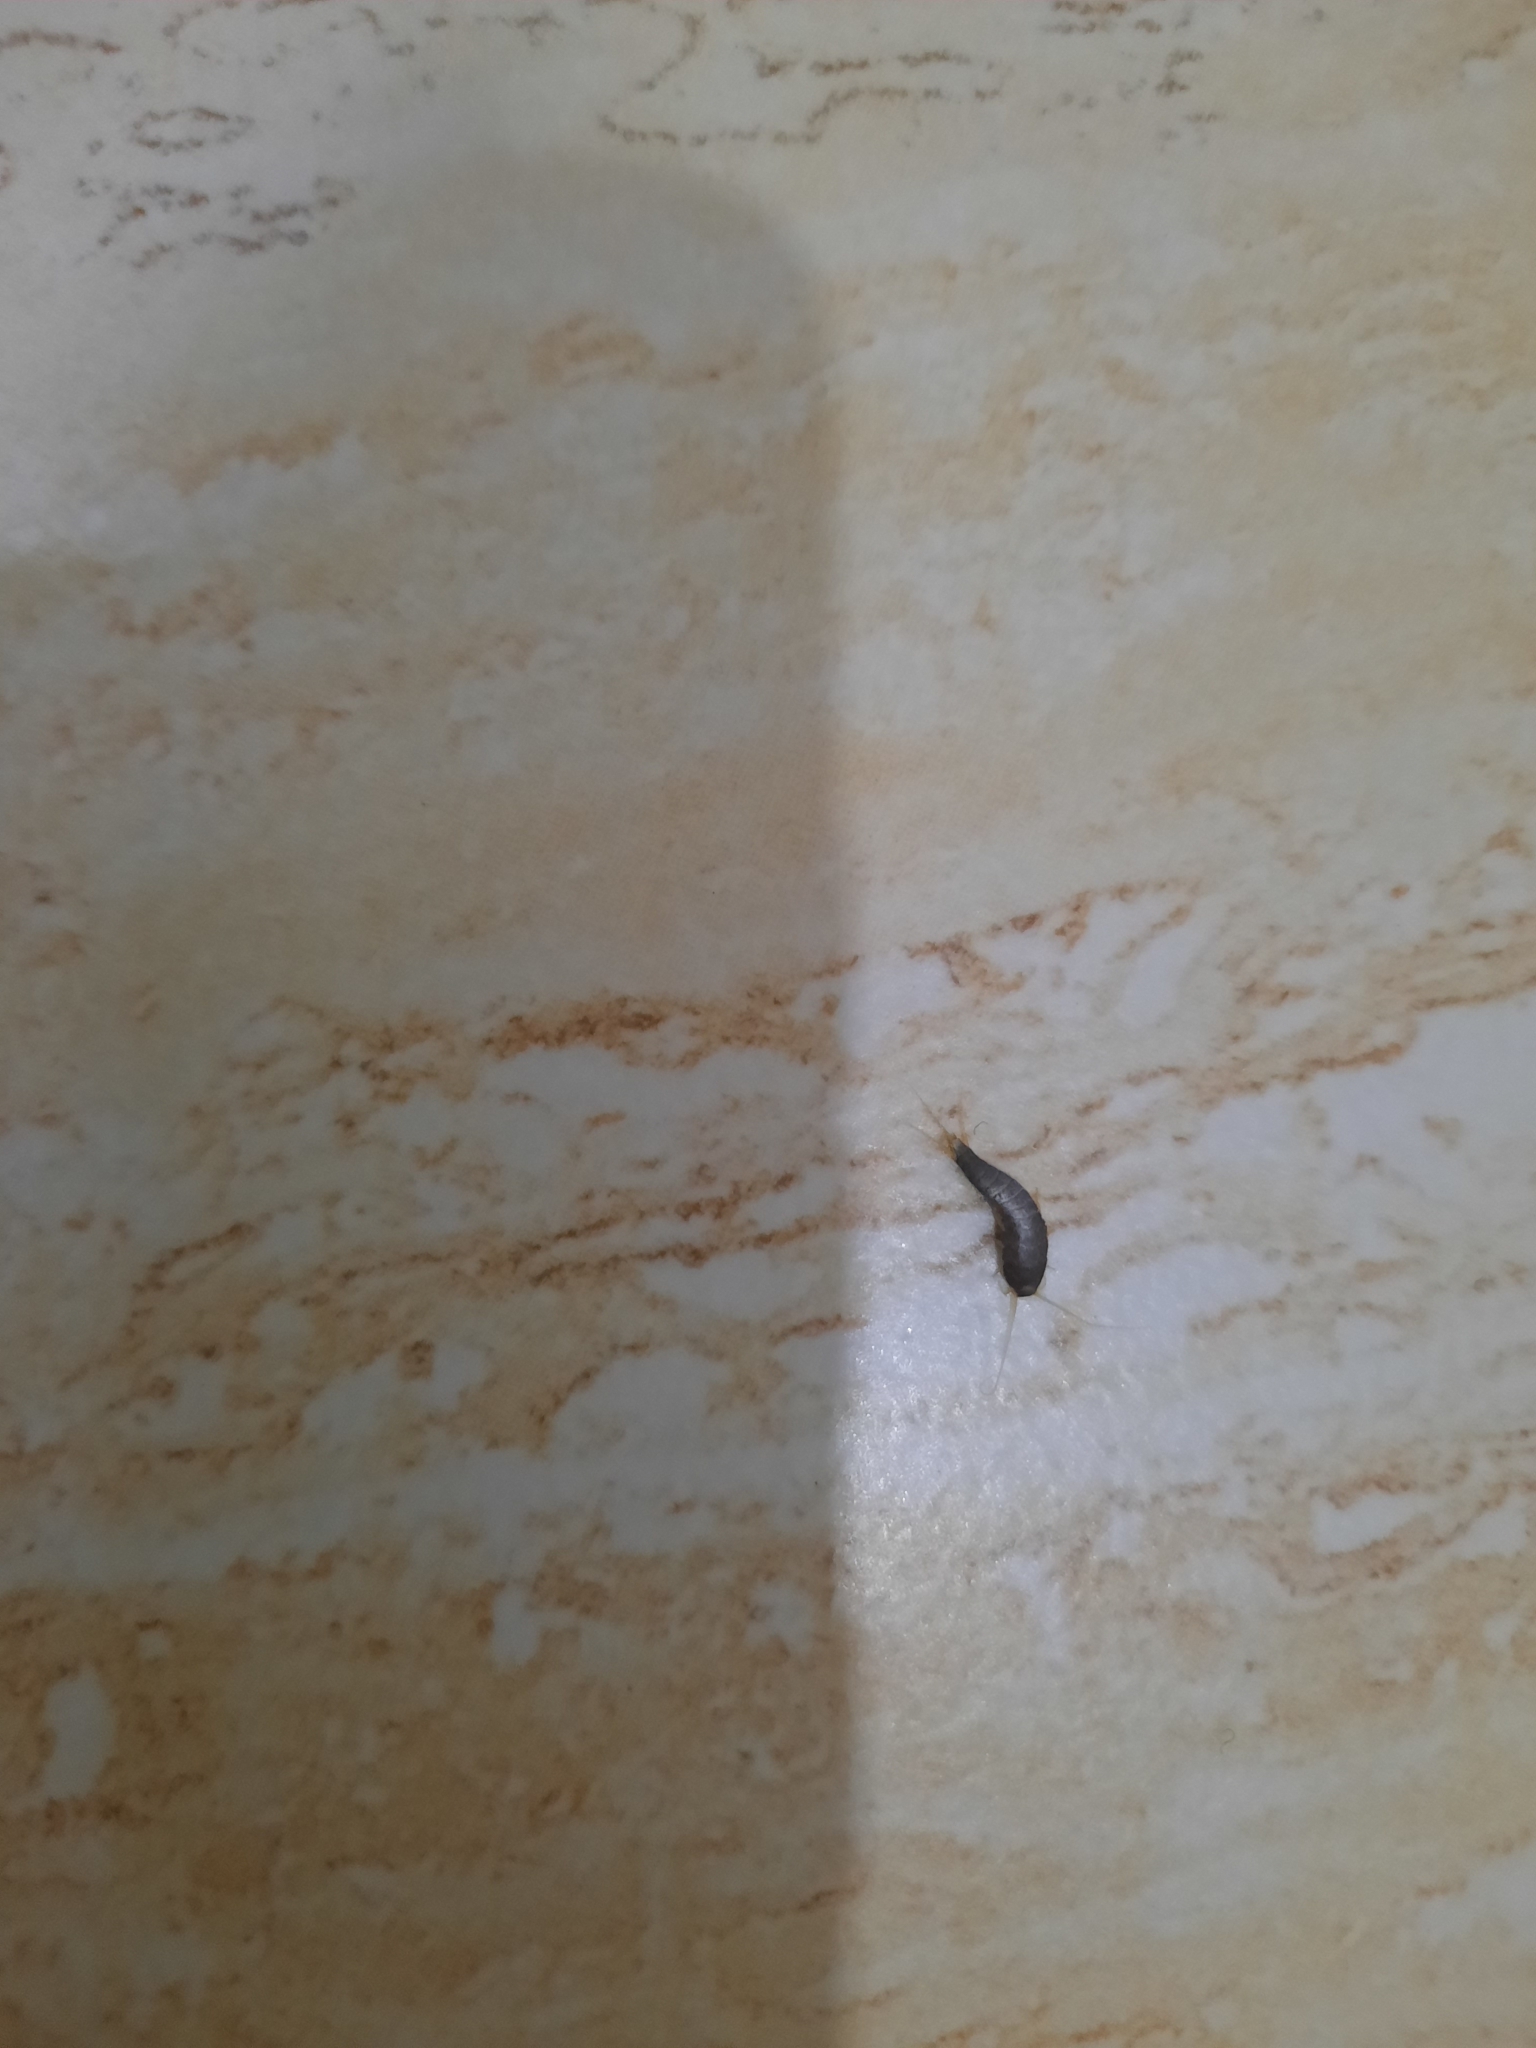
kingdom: Animalia
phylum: Arthropoda
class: Insecta
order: Zygentoma
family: Lepismatidae
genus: Lepisma
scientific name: Lepisma saccharinum
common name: Silverfish
